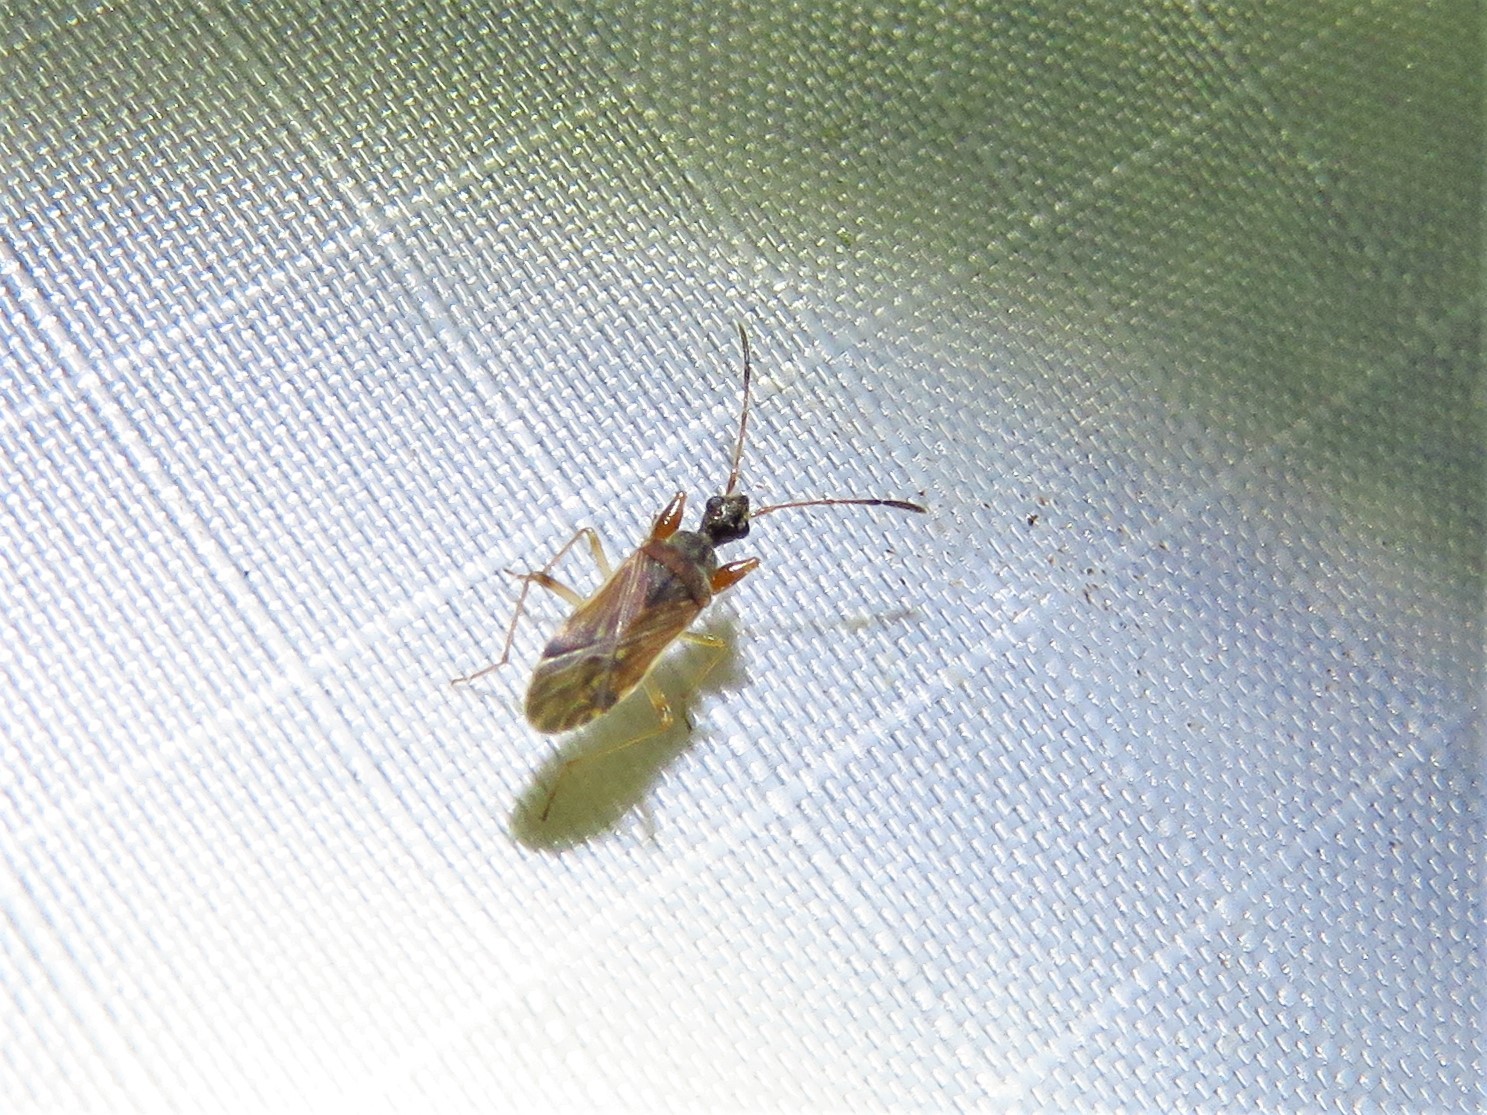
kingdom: Animalia
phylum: Arthropoda
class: Insecta
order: Hemiptera
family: Rhyparochromidae
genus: Heraeus
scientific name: Heraeus plebejus
